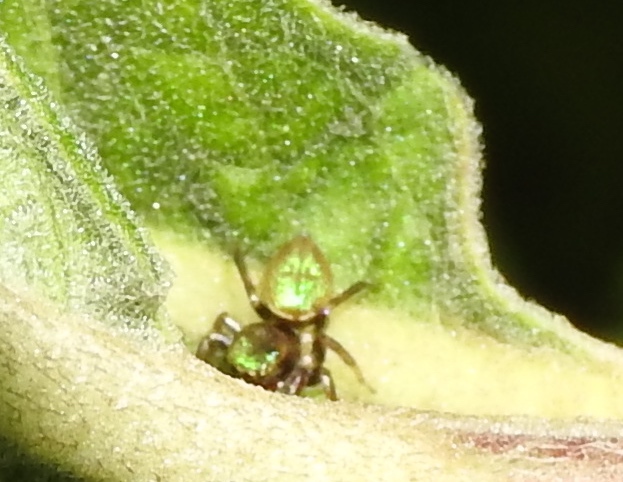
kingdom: Animalia
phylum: Arthropoda
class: Arachnida
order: Araneae
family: Salticidae
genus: Messua
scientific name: Messua limbata
